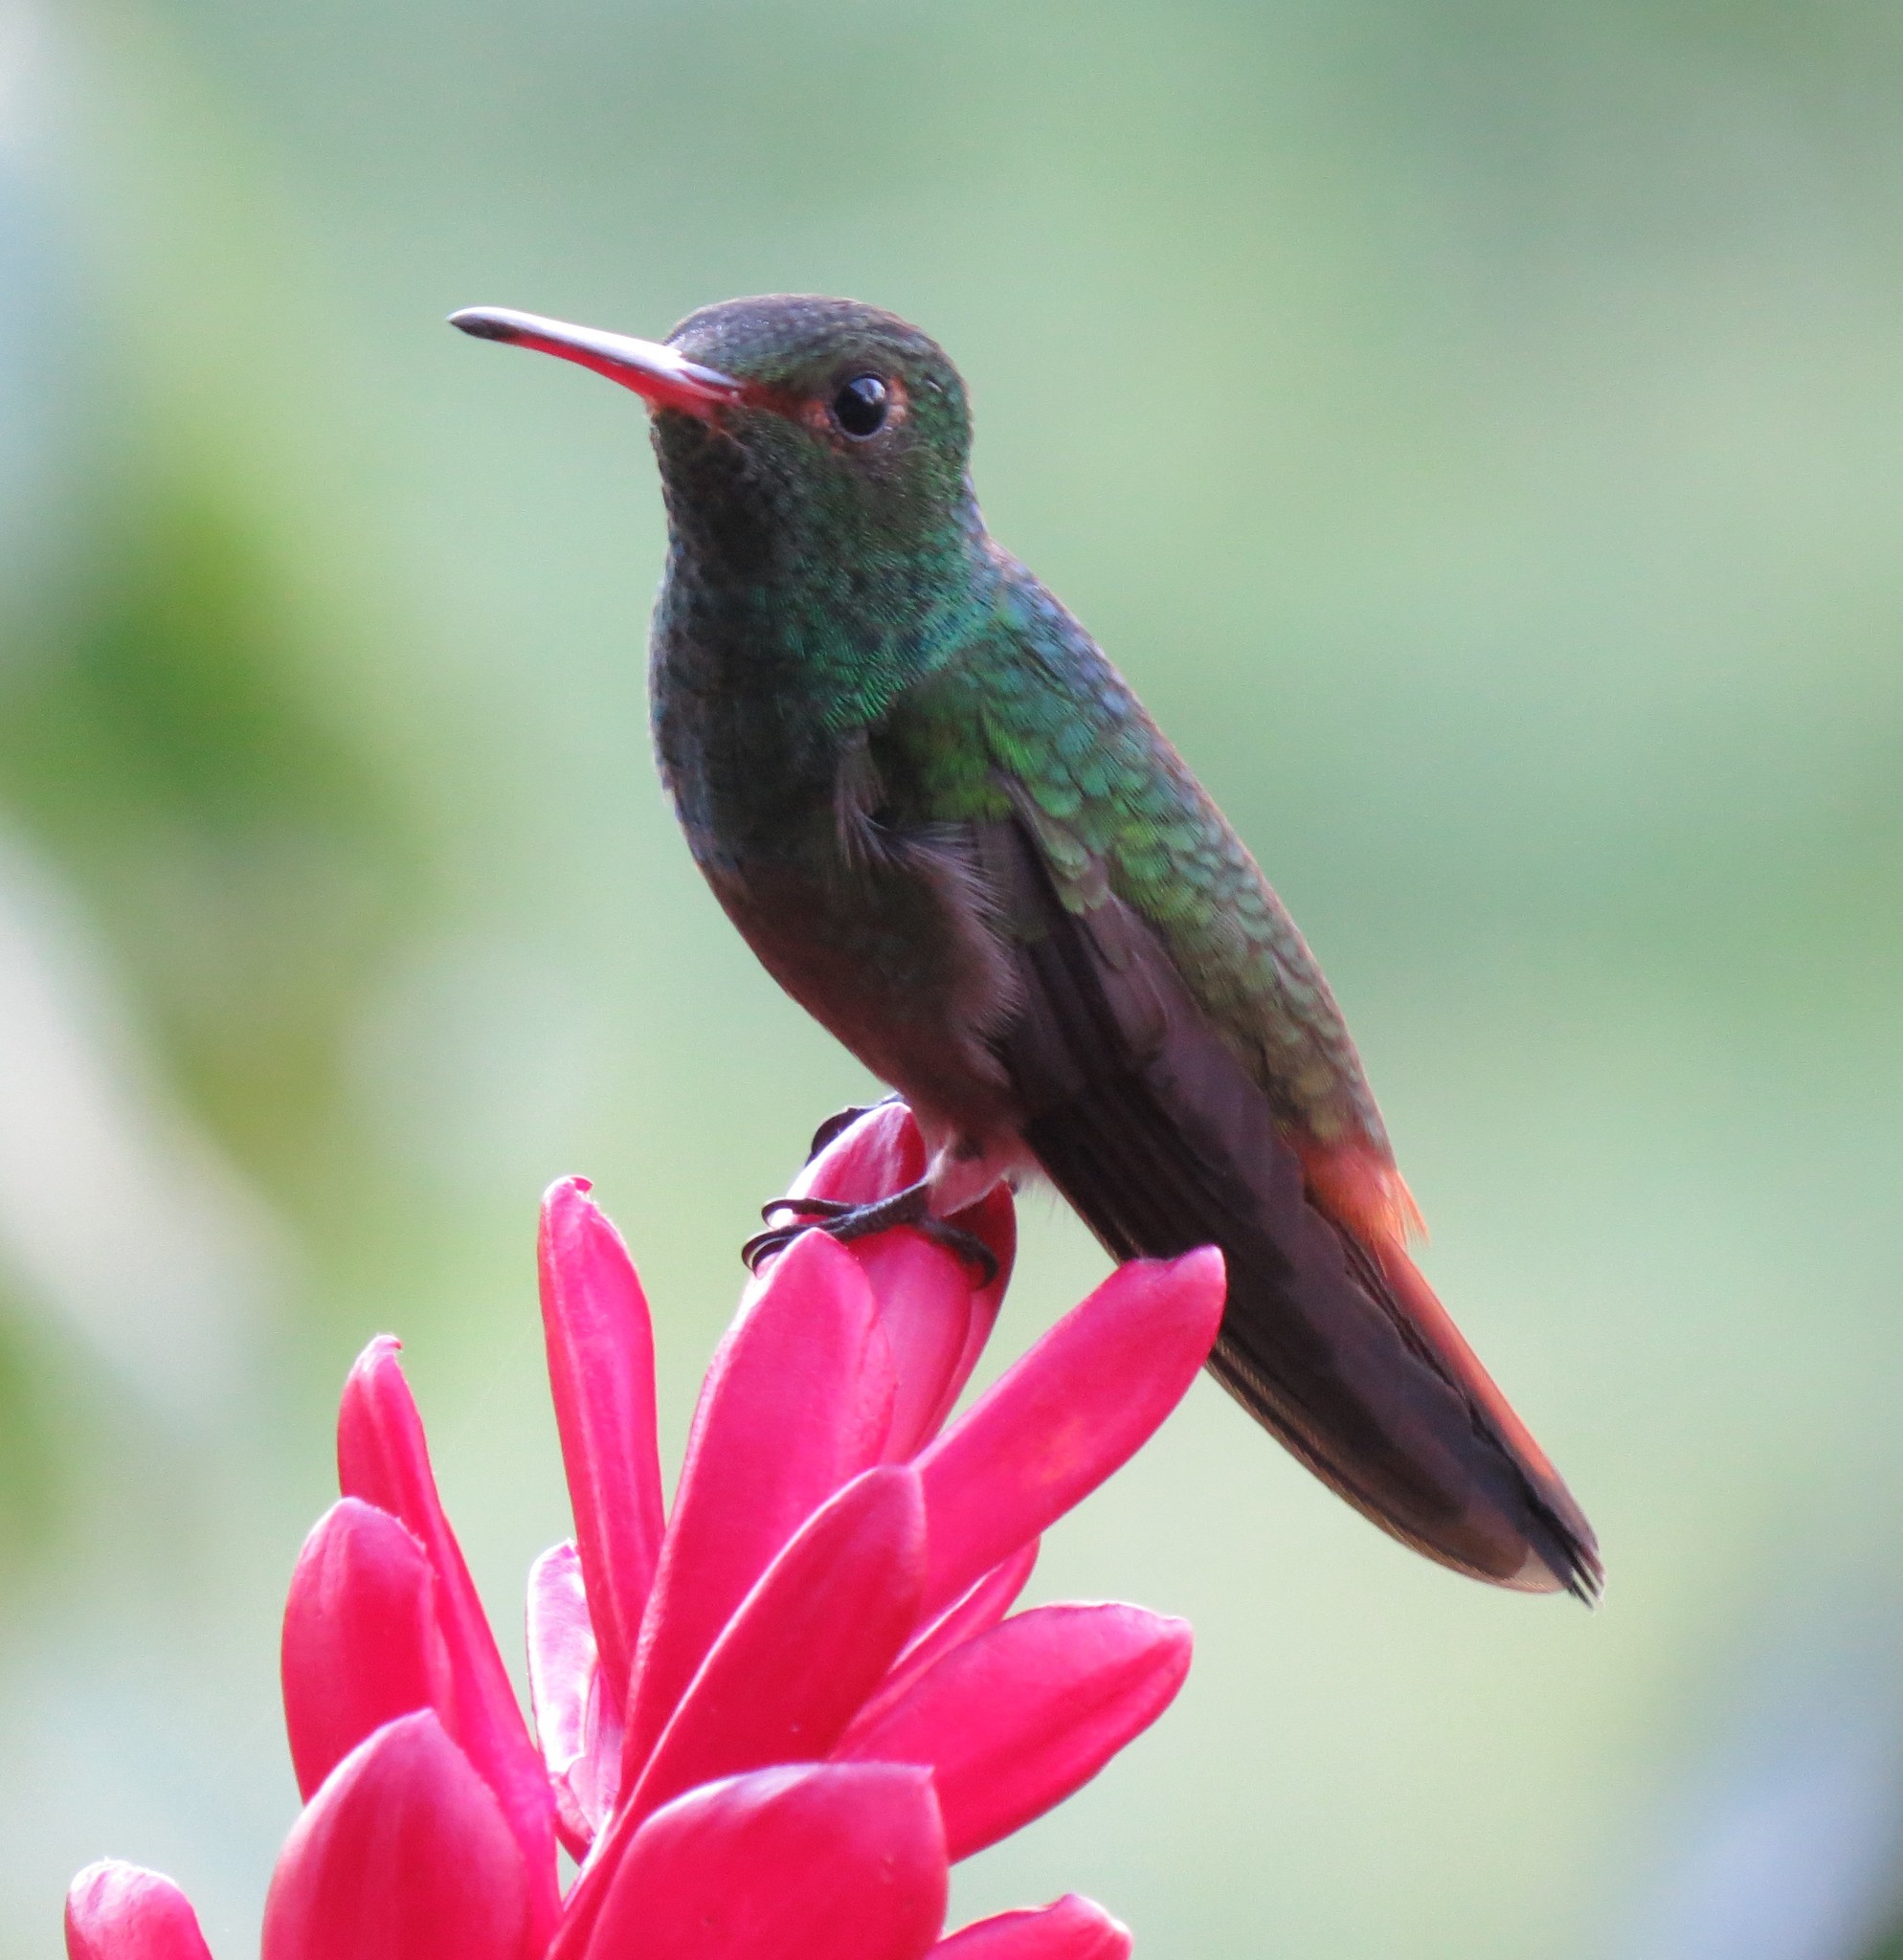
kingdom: Animalia
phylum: Chordata
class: Aves
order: Apodiformes
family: Trochilidae
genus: Amazilia
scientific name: Amazilia tzacatl
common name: Rufous-tailed hummingbird
